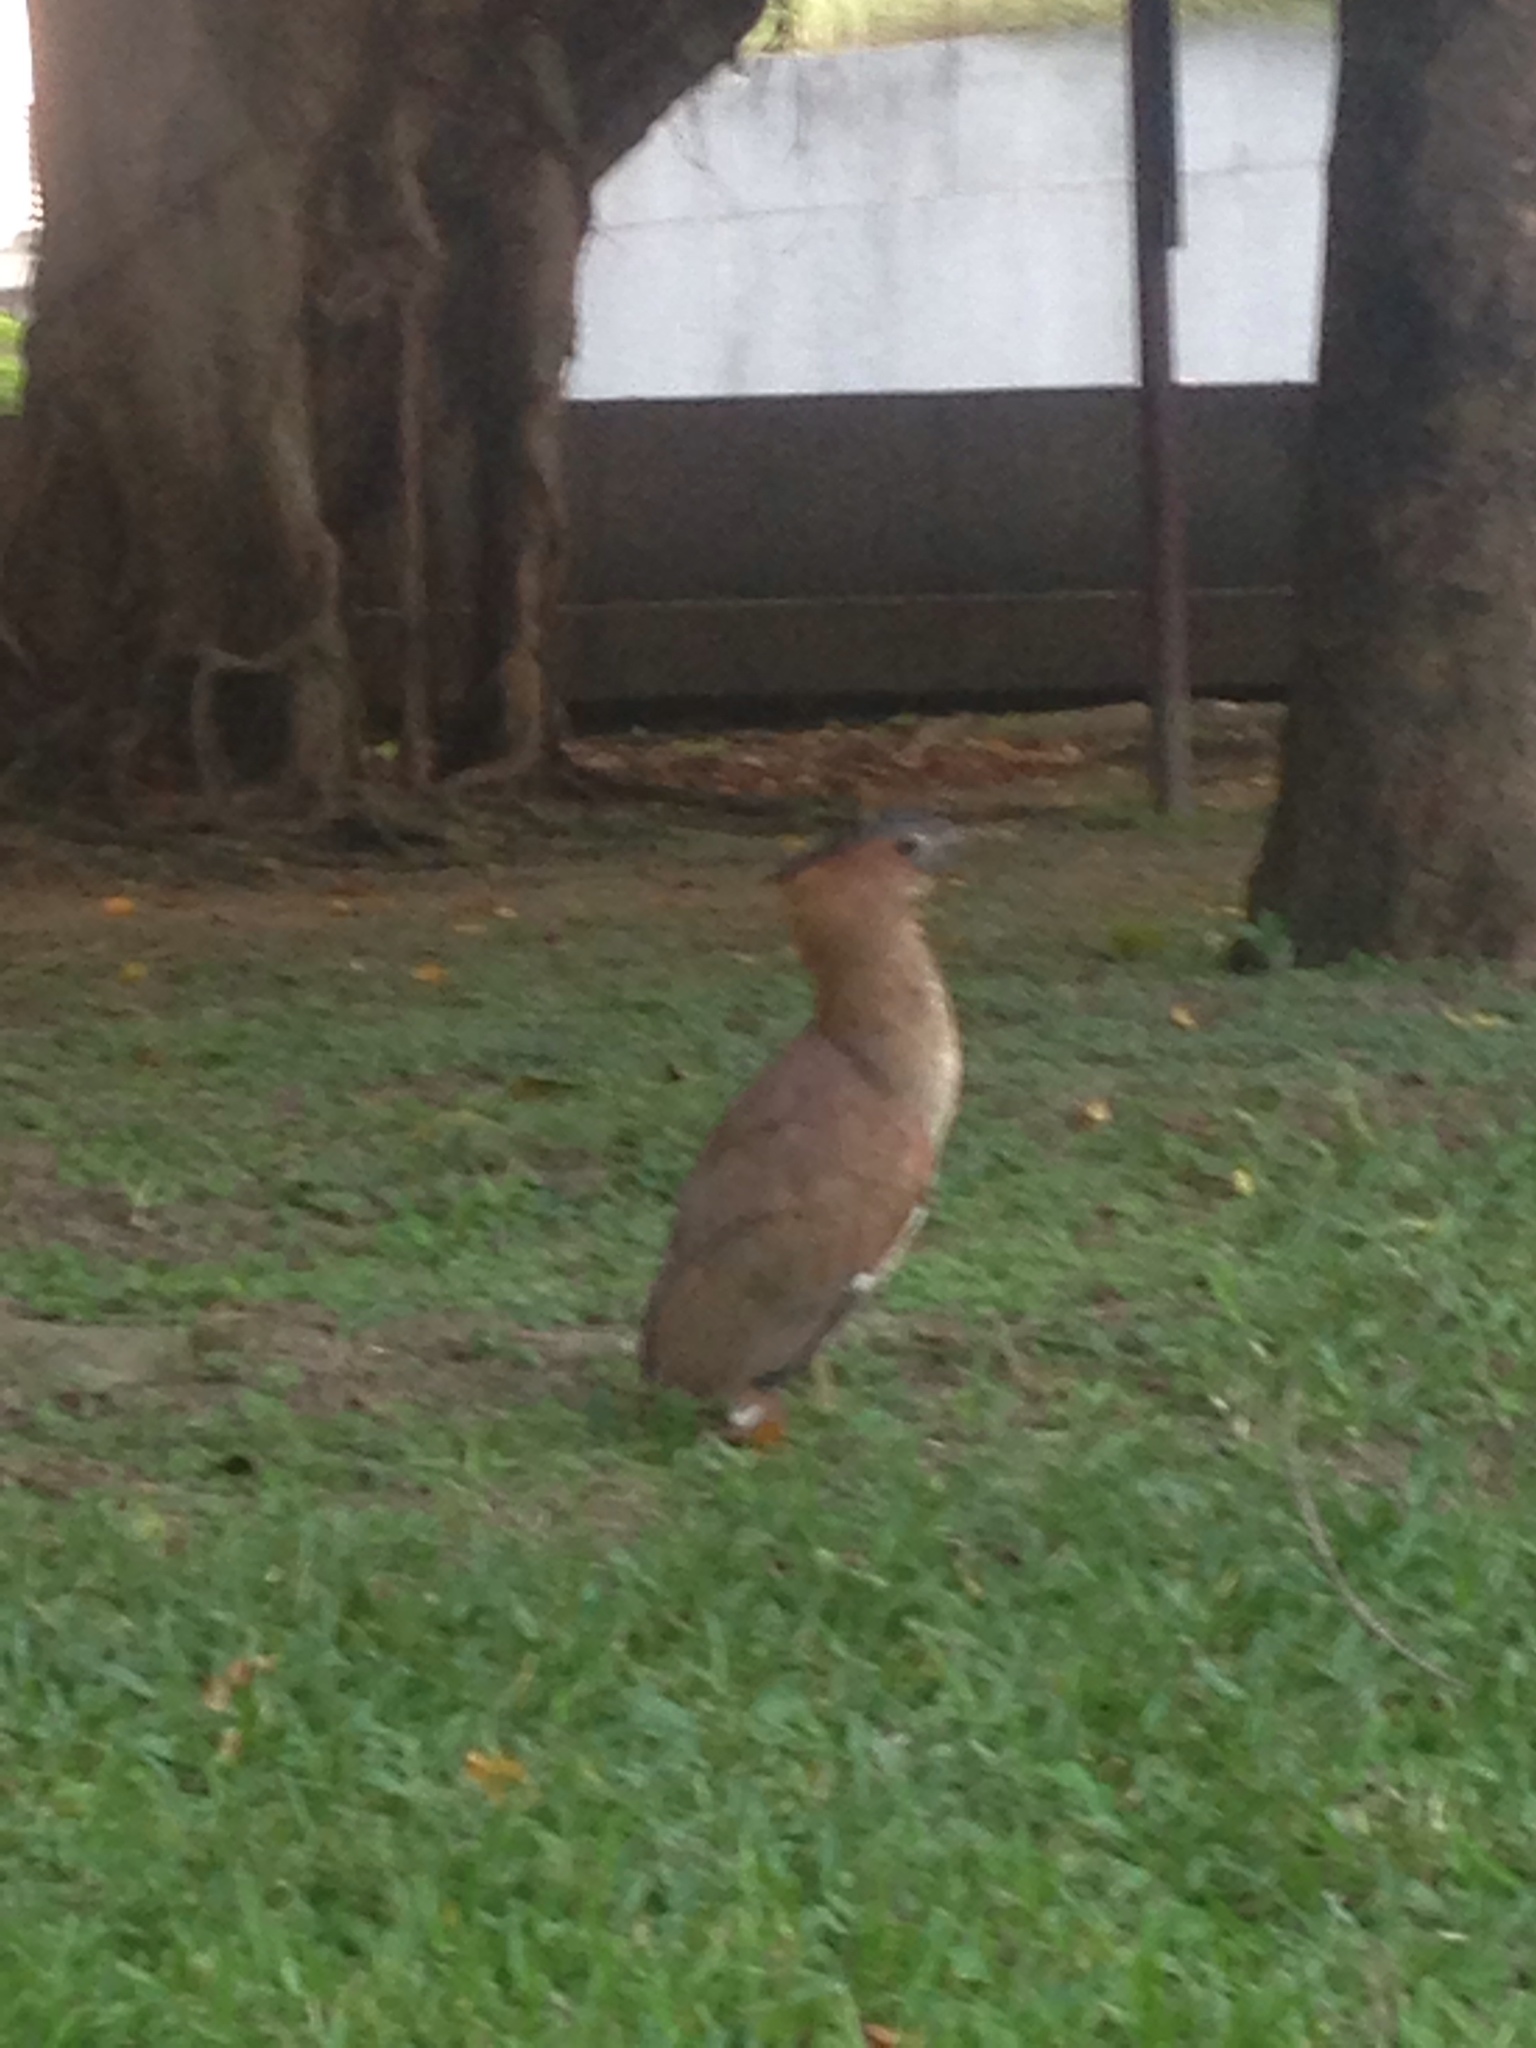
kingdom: Animalia
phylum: Chordata
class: Aves
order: Pelecaniformes
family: Ardeidae
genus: Gorsachius
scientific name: Gorsachius melanolophus
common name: Malayan night heron
